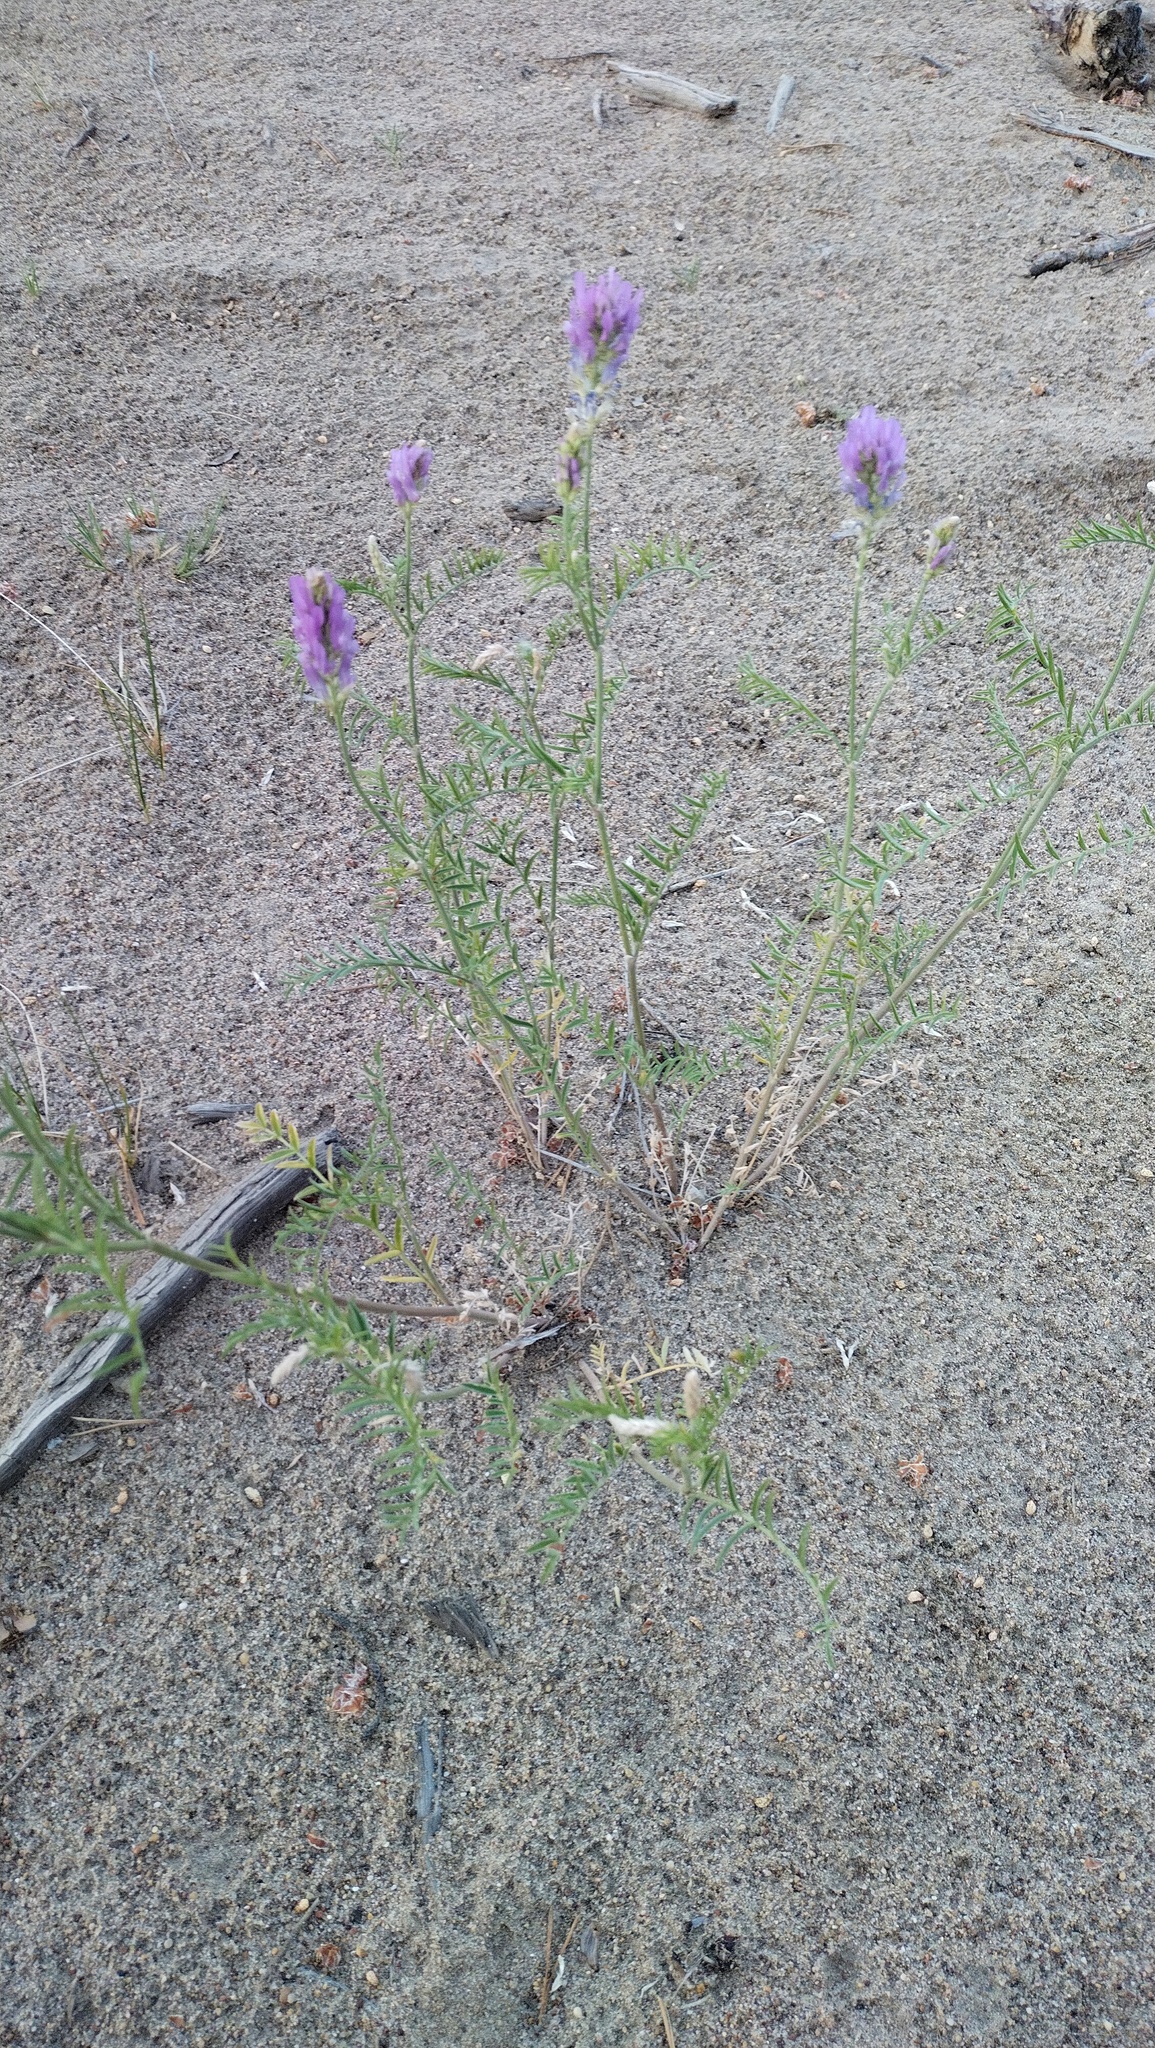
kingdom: Plantae
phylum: Tracheophyta
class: Magnoliopsida
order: Fabales
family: Fabaceae
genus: Astragalus
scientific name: Astragalus onobrychis
